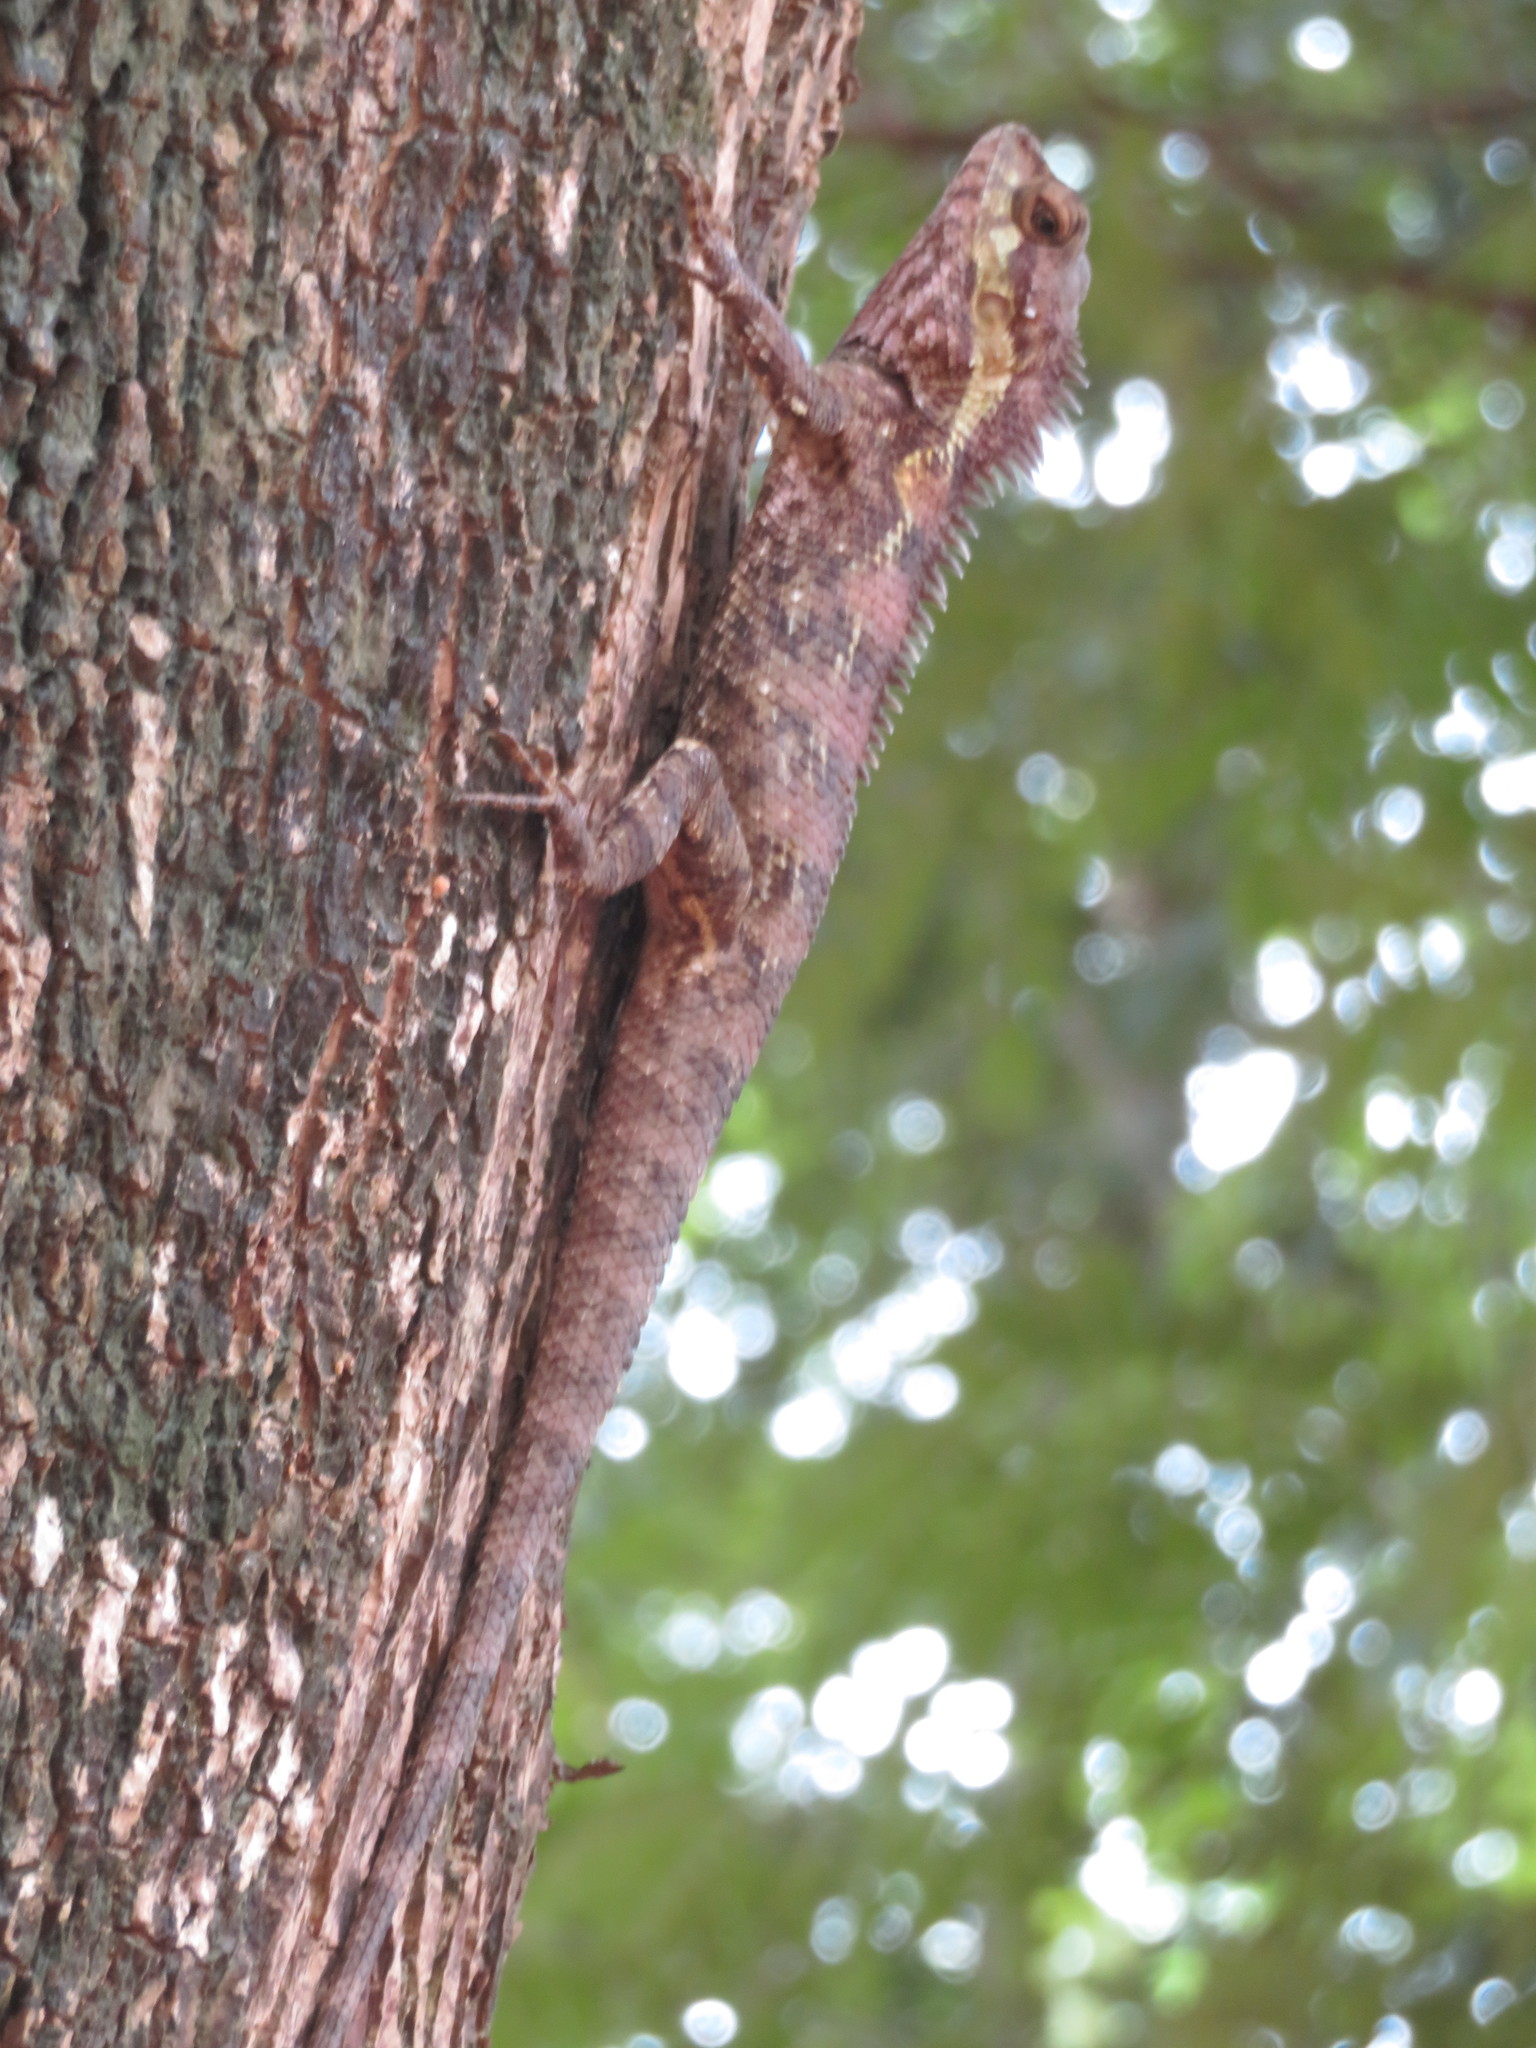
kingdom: Animalia
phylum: Chordata
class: Squamata
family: Agamidae
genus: Calotes
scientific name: Calotes goetzi
